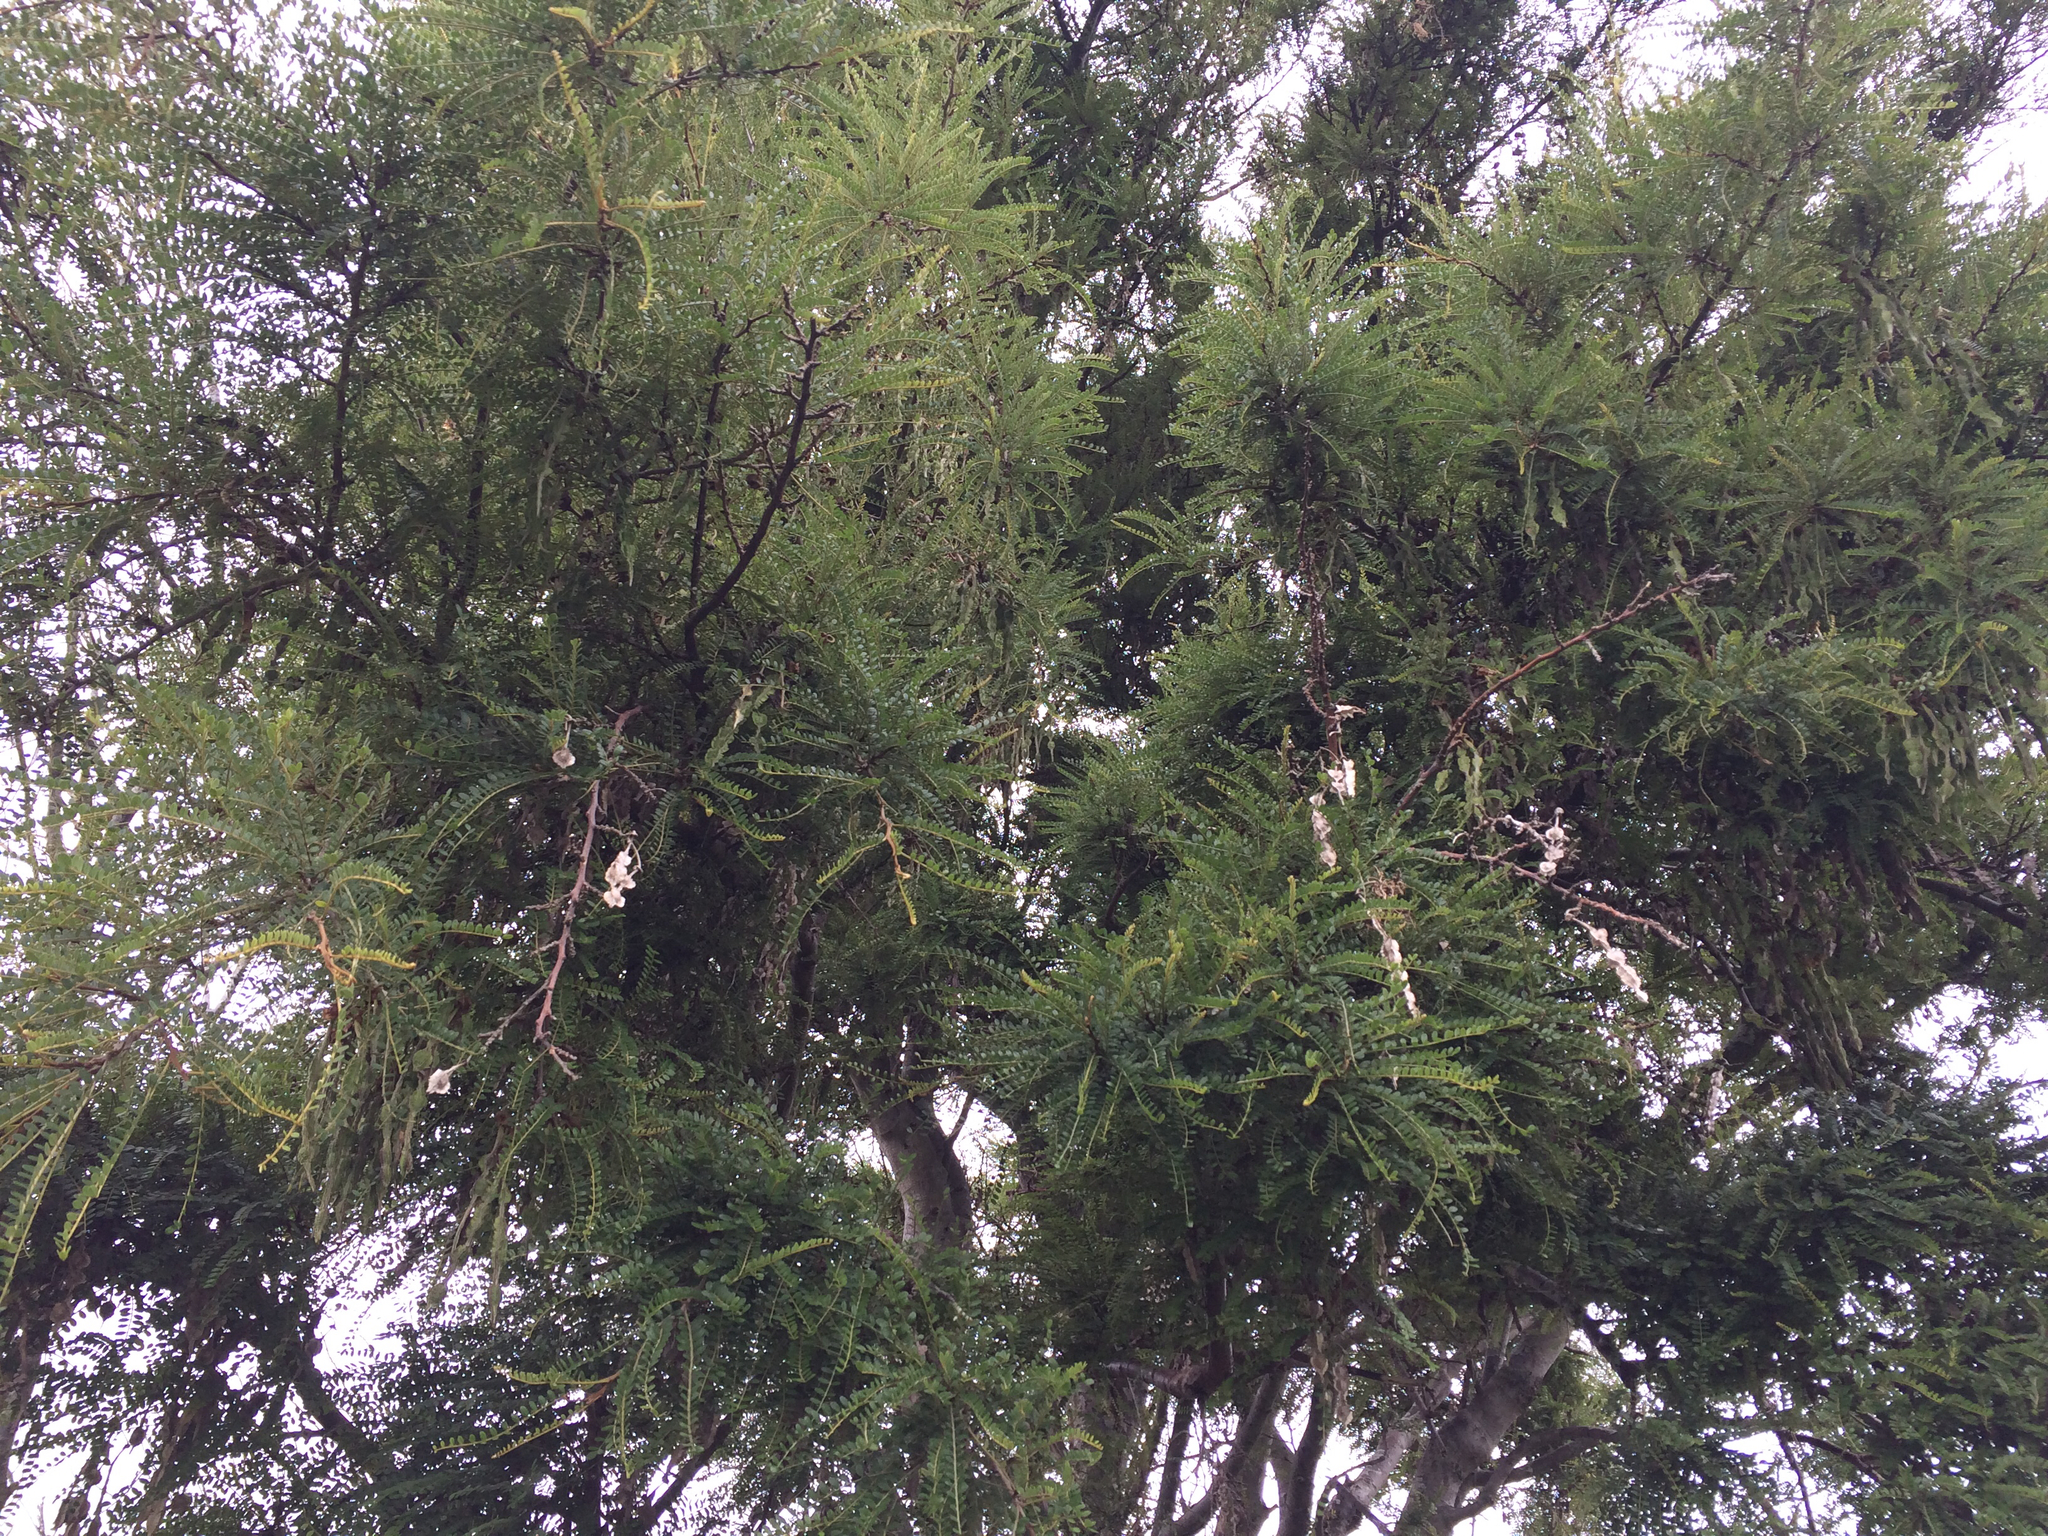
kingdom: Plantae
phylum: Tracheophyta
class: Magnoliopsida
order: Fabales
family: Fabaceae
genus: Sophora
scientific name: Sophora microphylla
